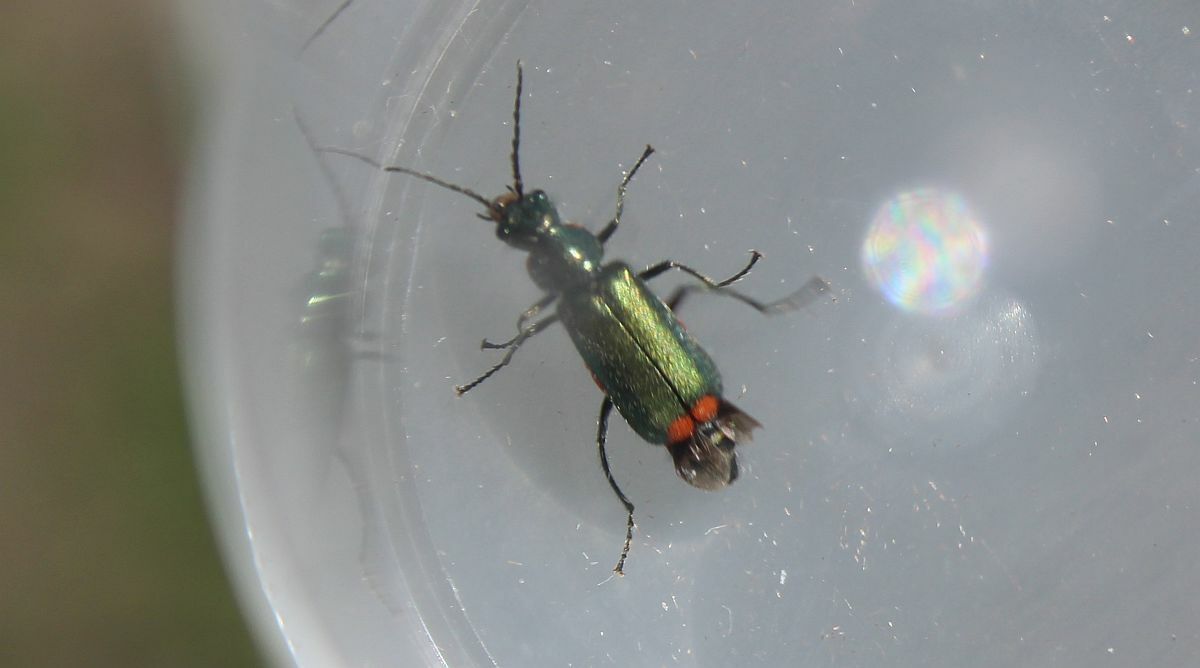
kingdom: Animalia
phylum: Arthropoda
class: Insecta
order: Coleoptera
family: Melyridae
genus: Malachius
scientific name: Malachius bipustulatus
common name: Malachite beetle
